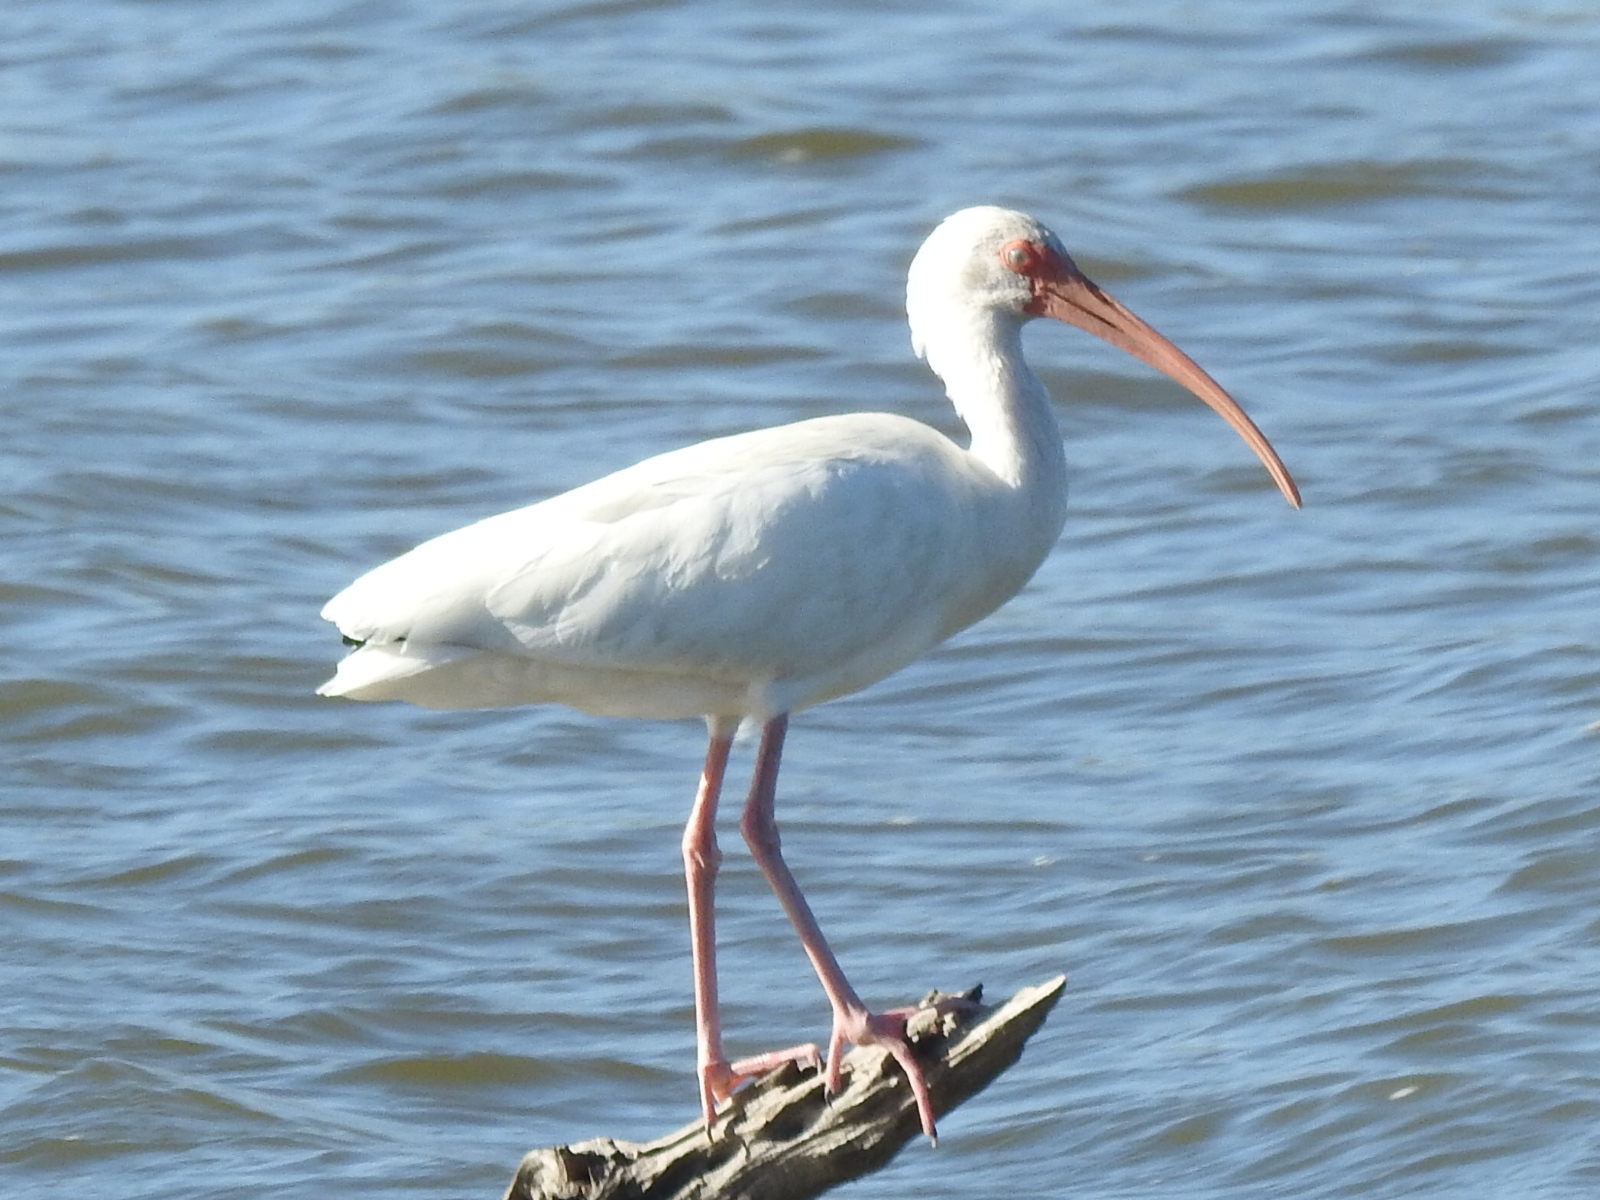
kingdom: Animalia
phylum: Chordata
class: Aves
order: Pelecaniformes
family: Threskiornithidae
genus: Eudocimus
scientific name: Eudocimus albus
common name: White ibis
